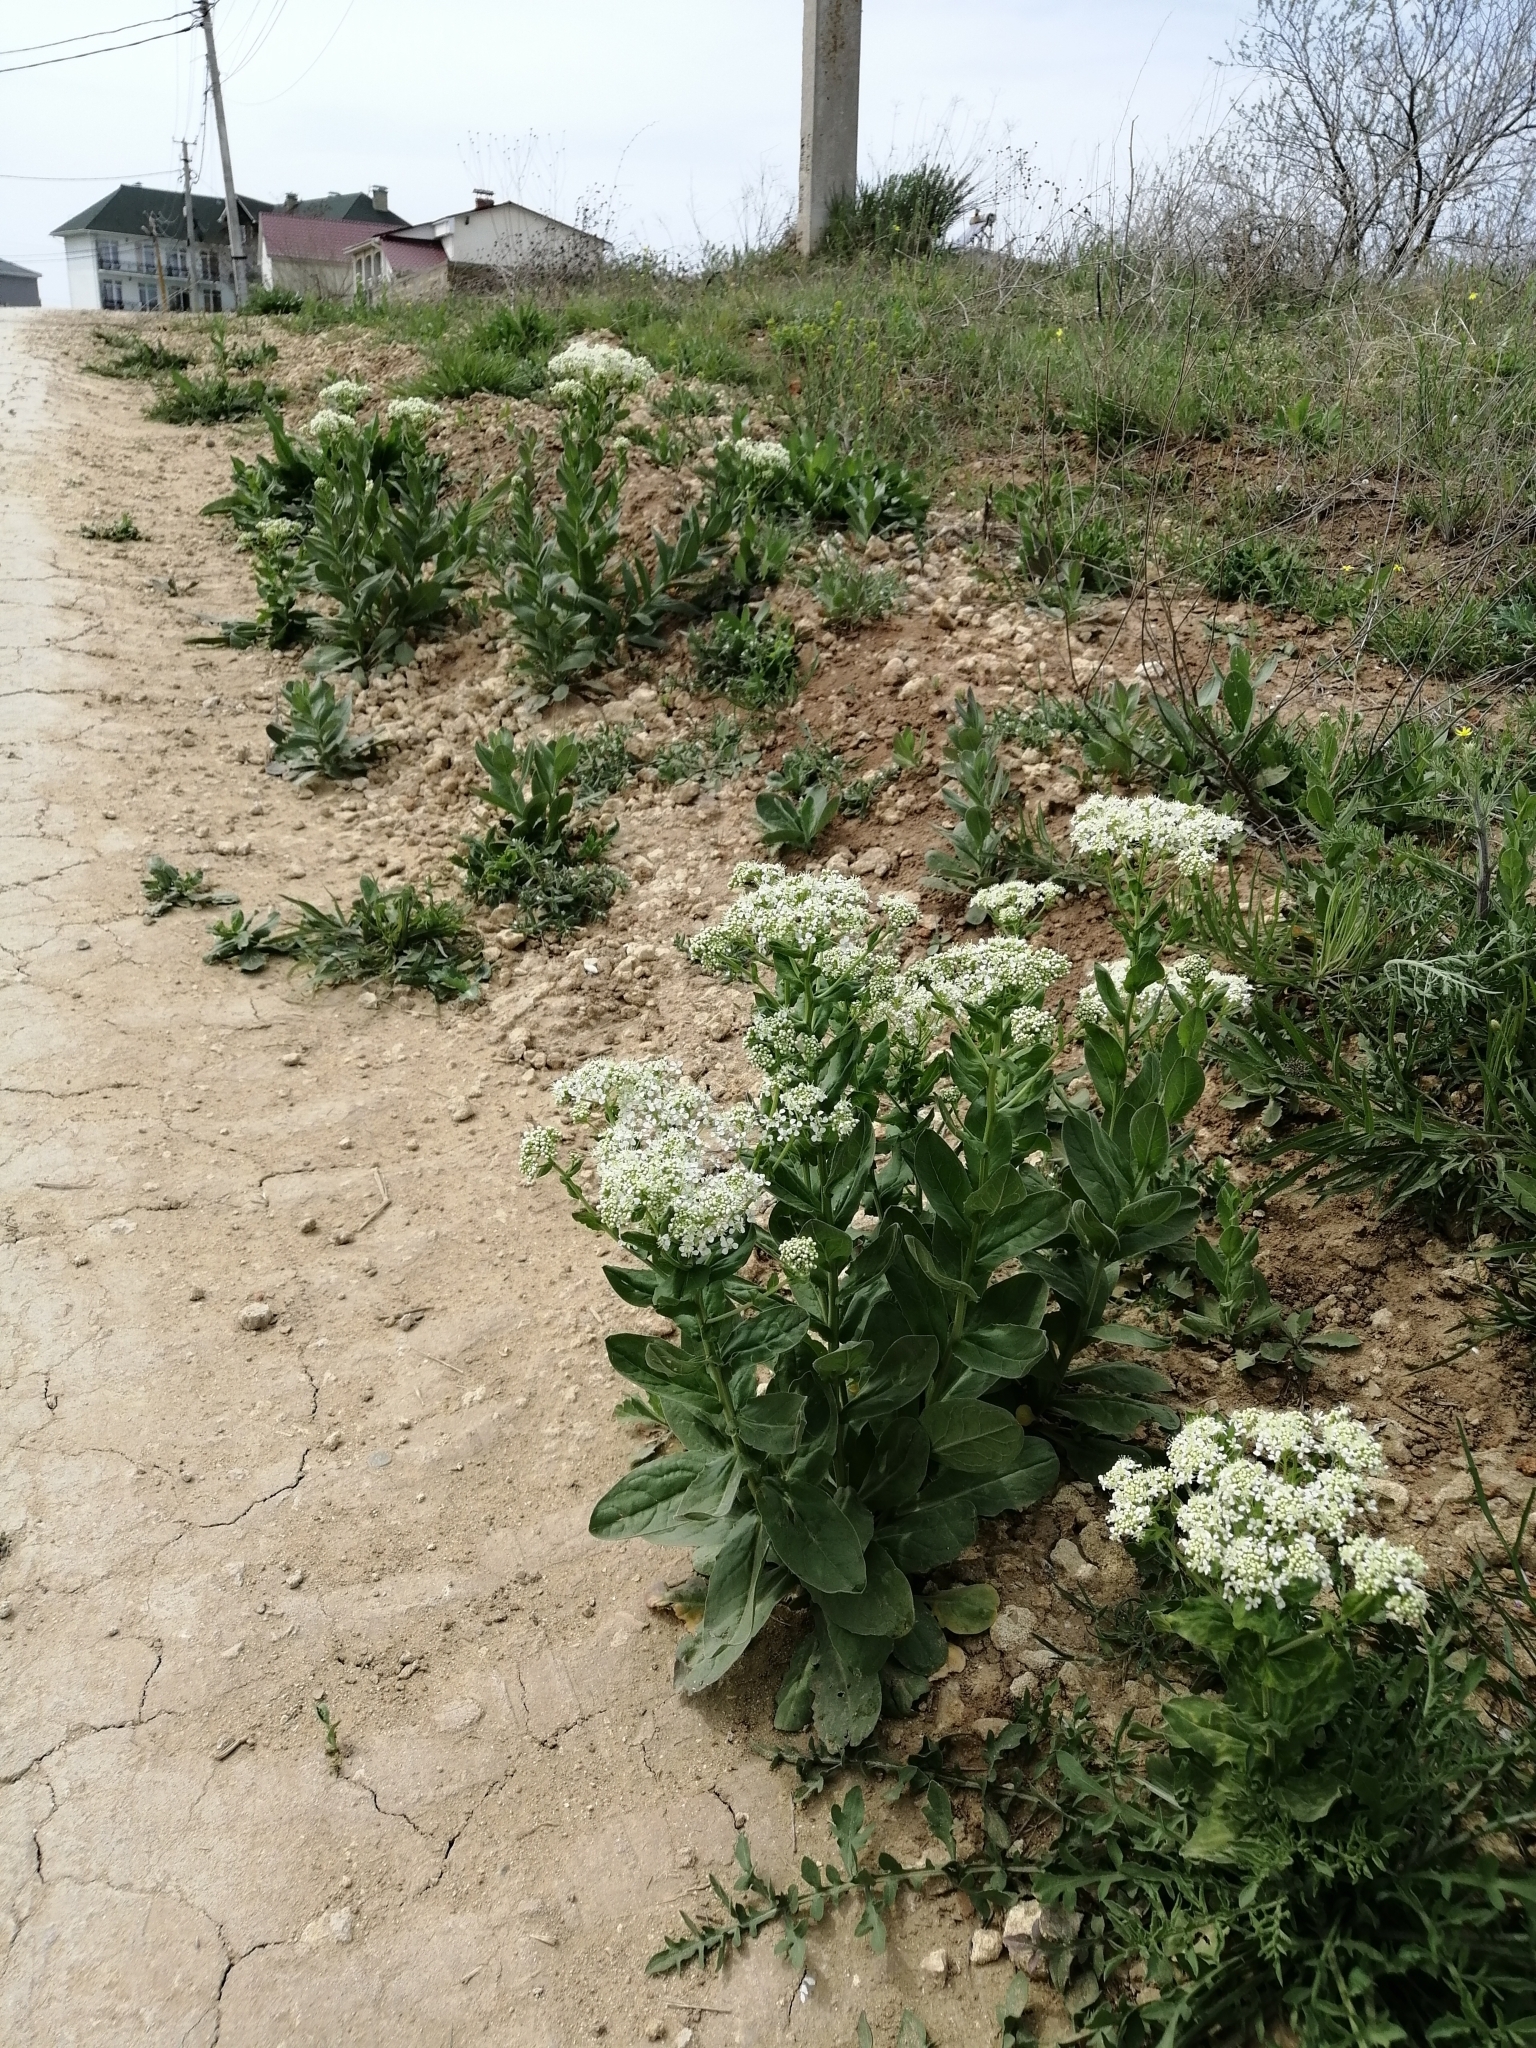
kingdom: Plantae
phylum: Tracheophyta
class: Magnoliopsida
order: Brassicales
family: Brassicaceae
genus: Lepidium
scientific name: Lepidium draba
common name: Hoary cress
